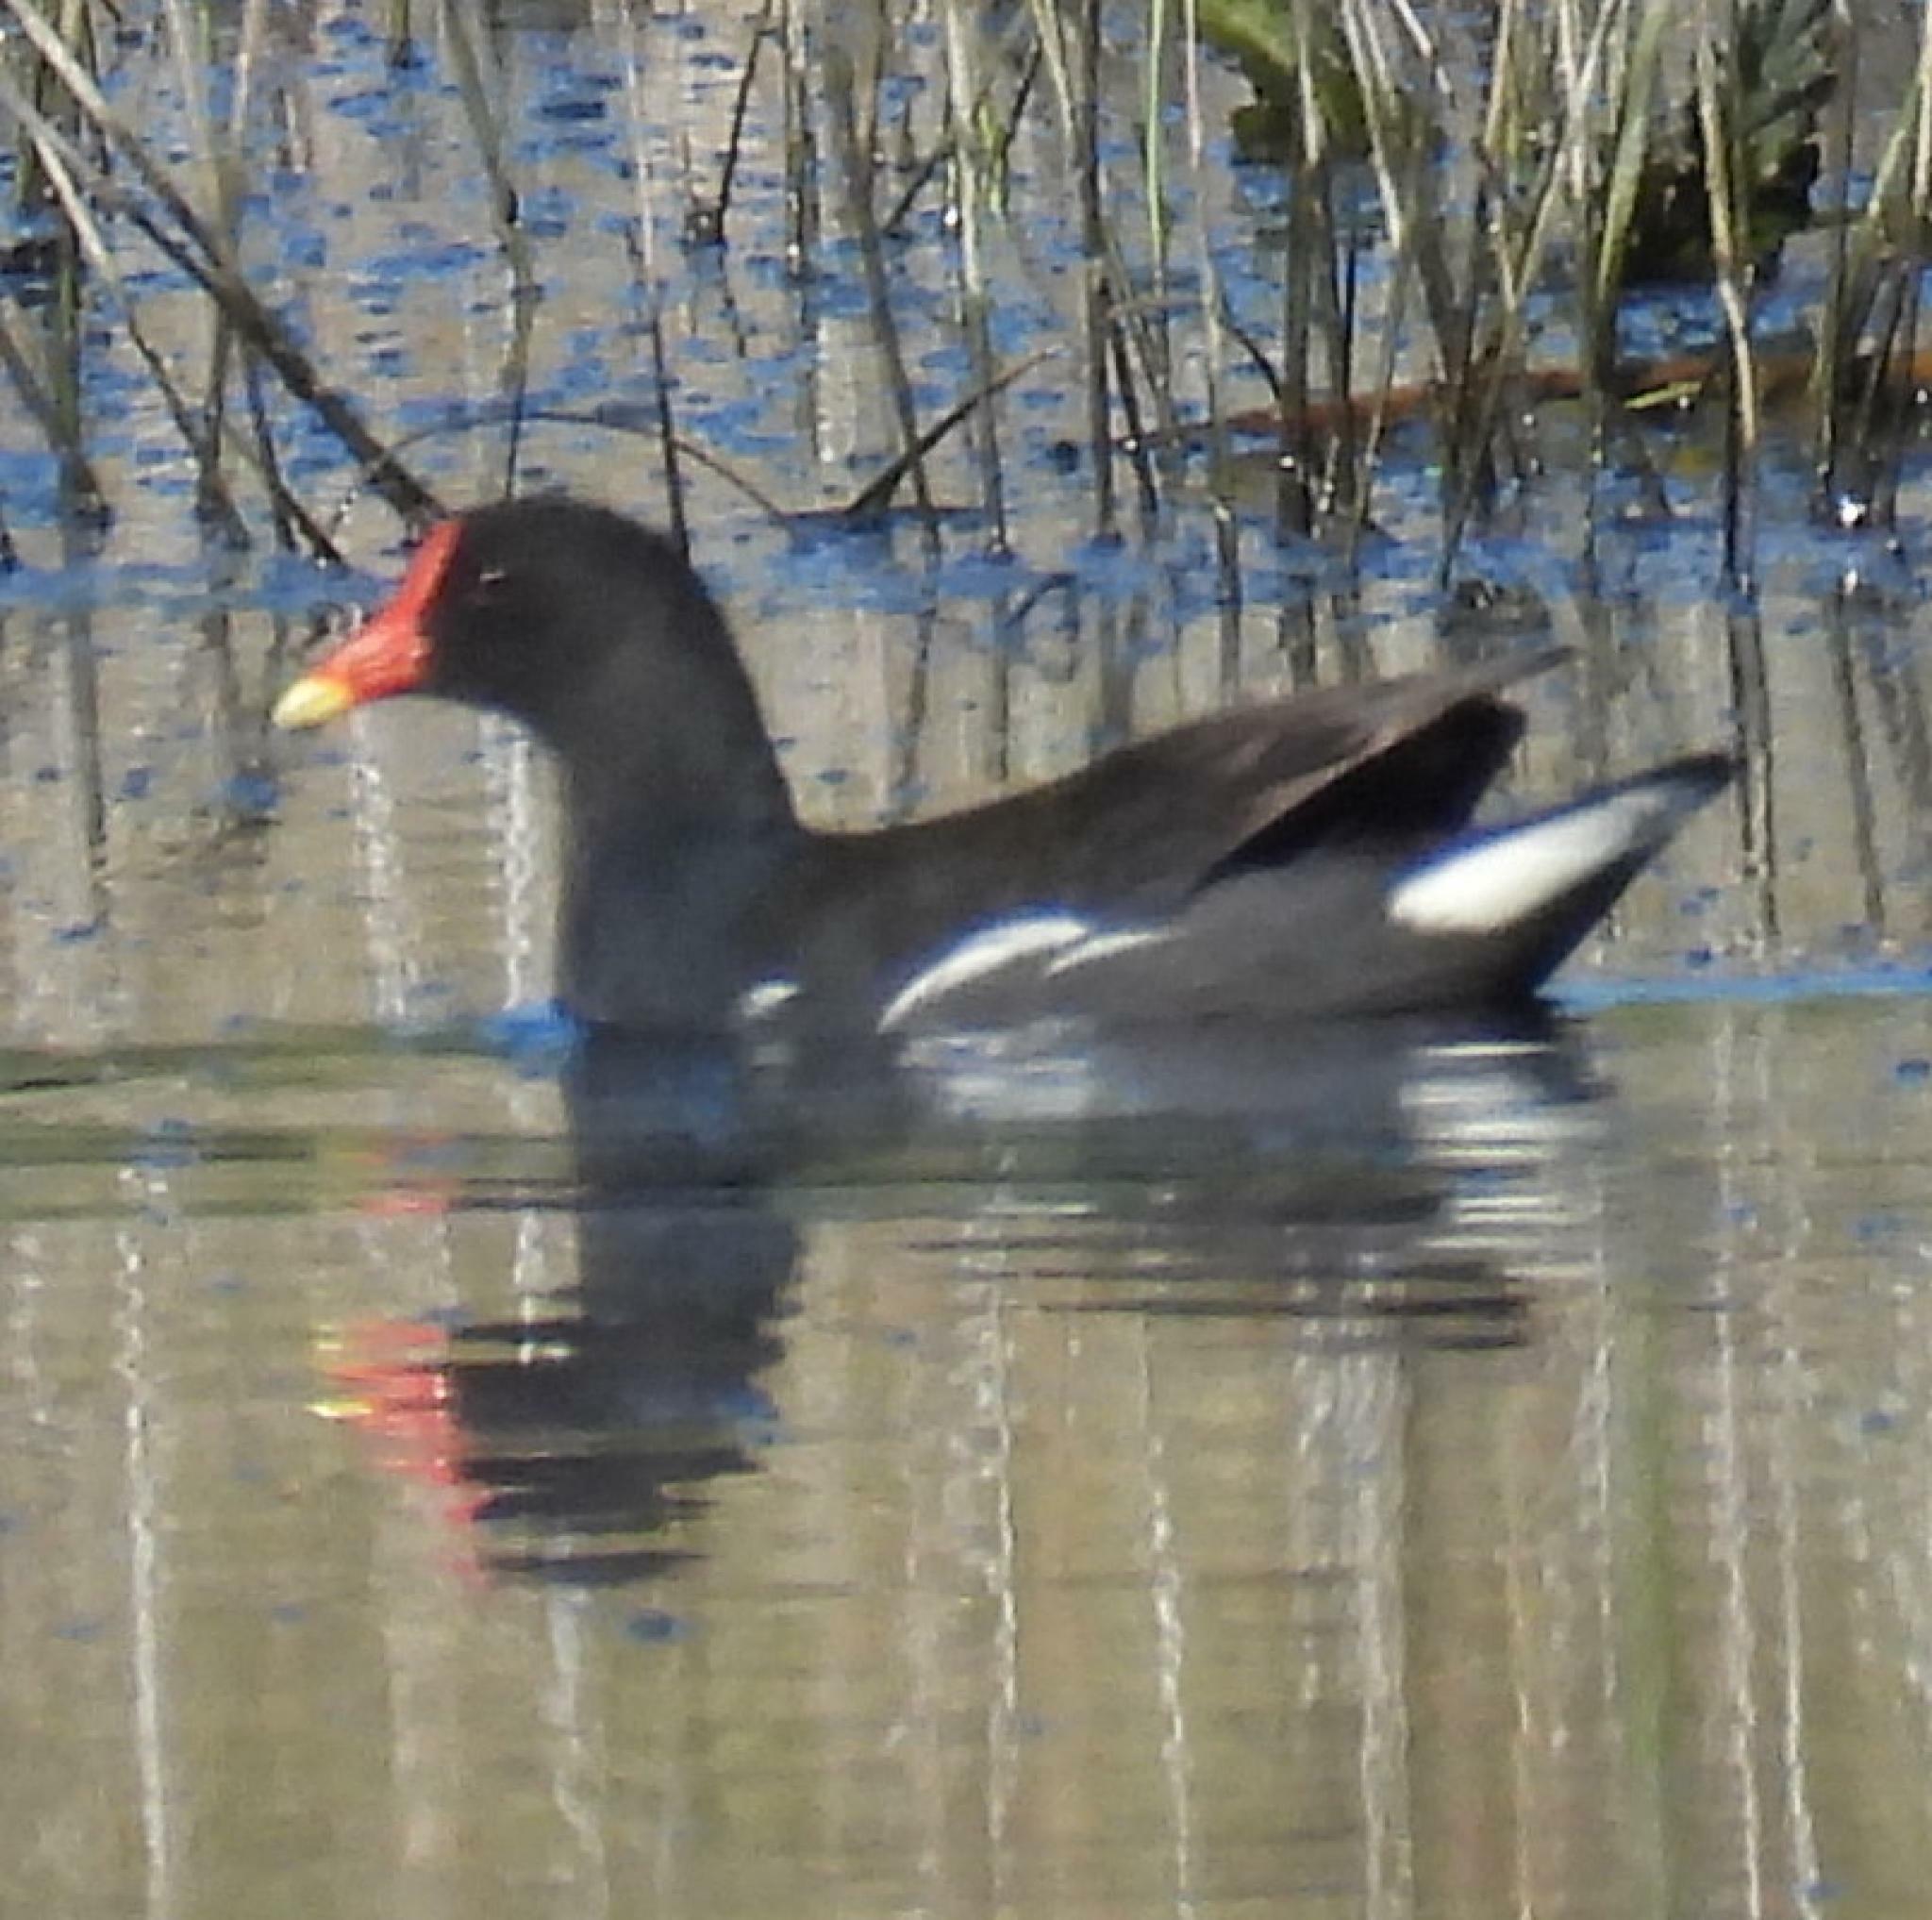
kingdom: Animalia
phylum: Chordata
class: Aves
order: Gruiformes
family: Rallidae
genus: Gallinula
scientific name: Gallinula chloropus
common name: Common moorhen
